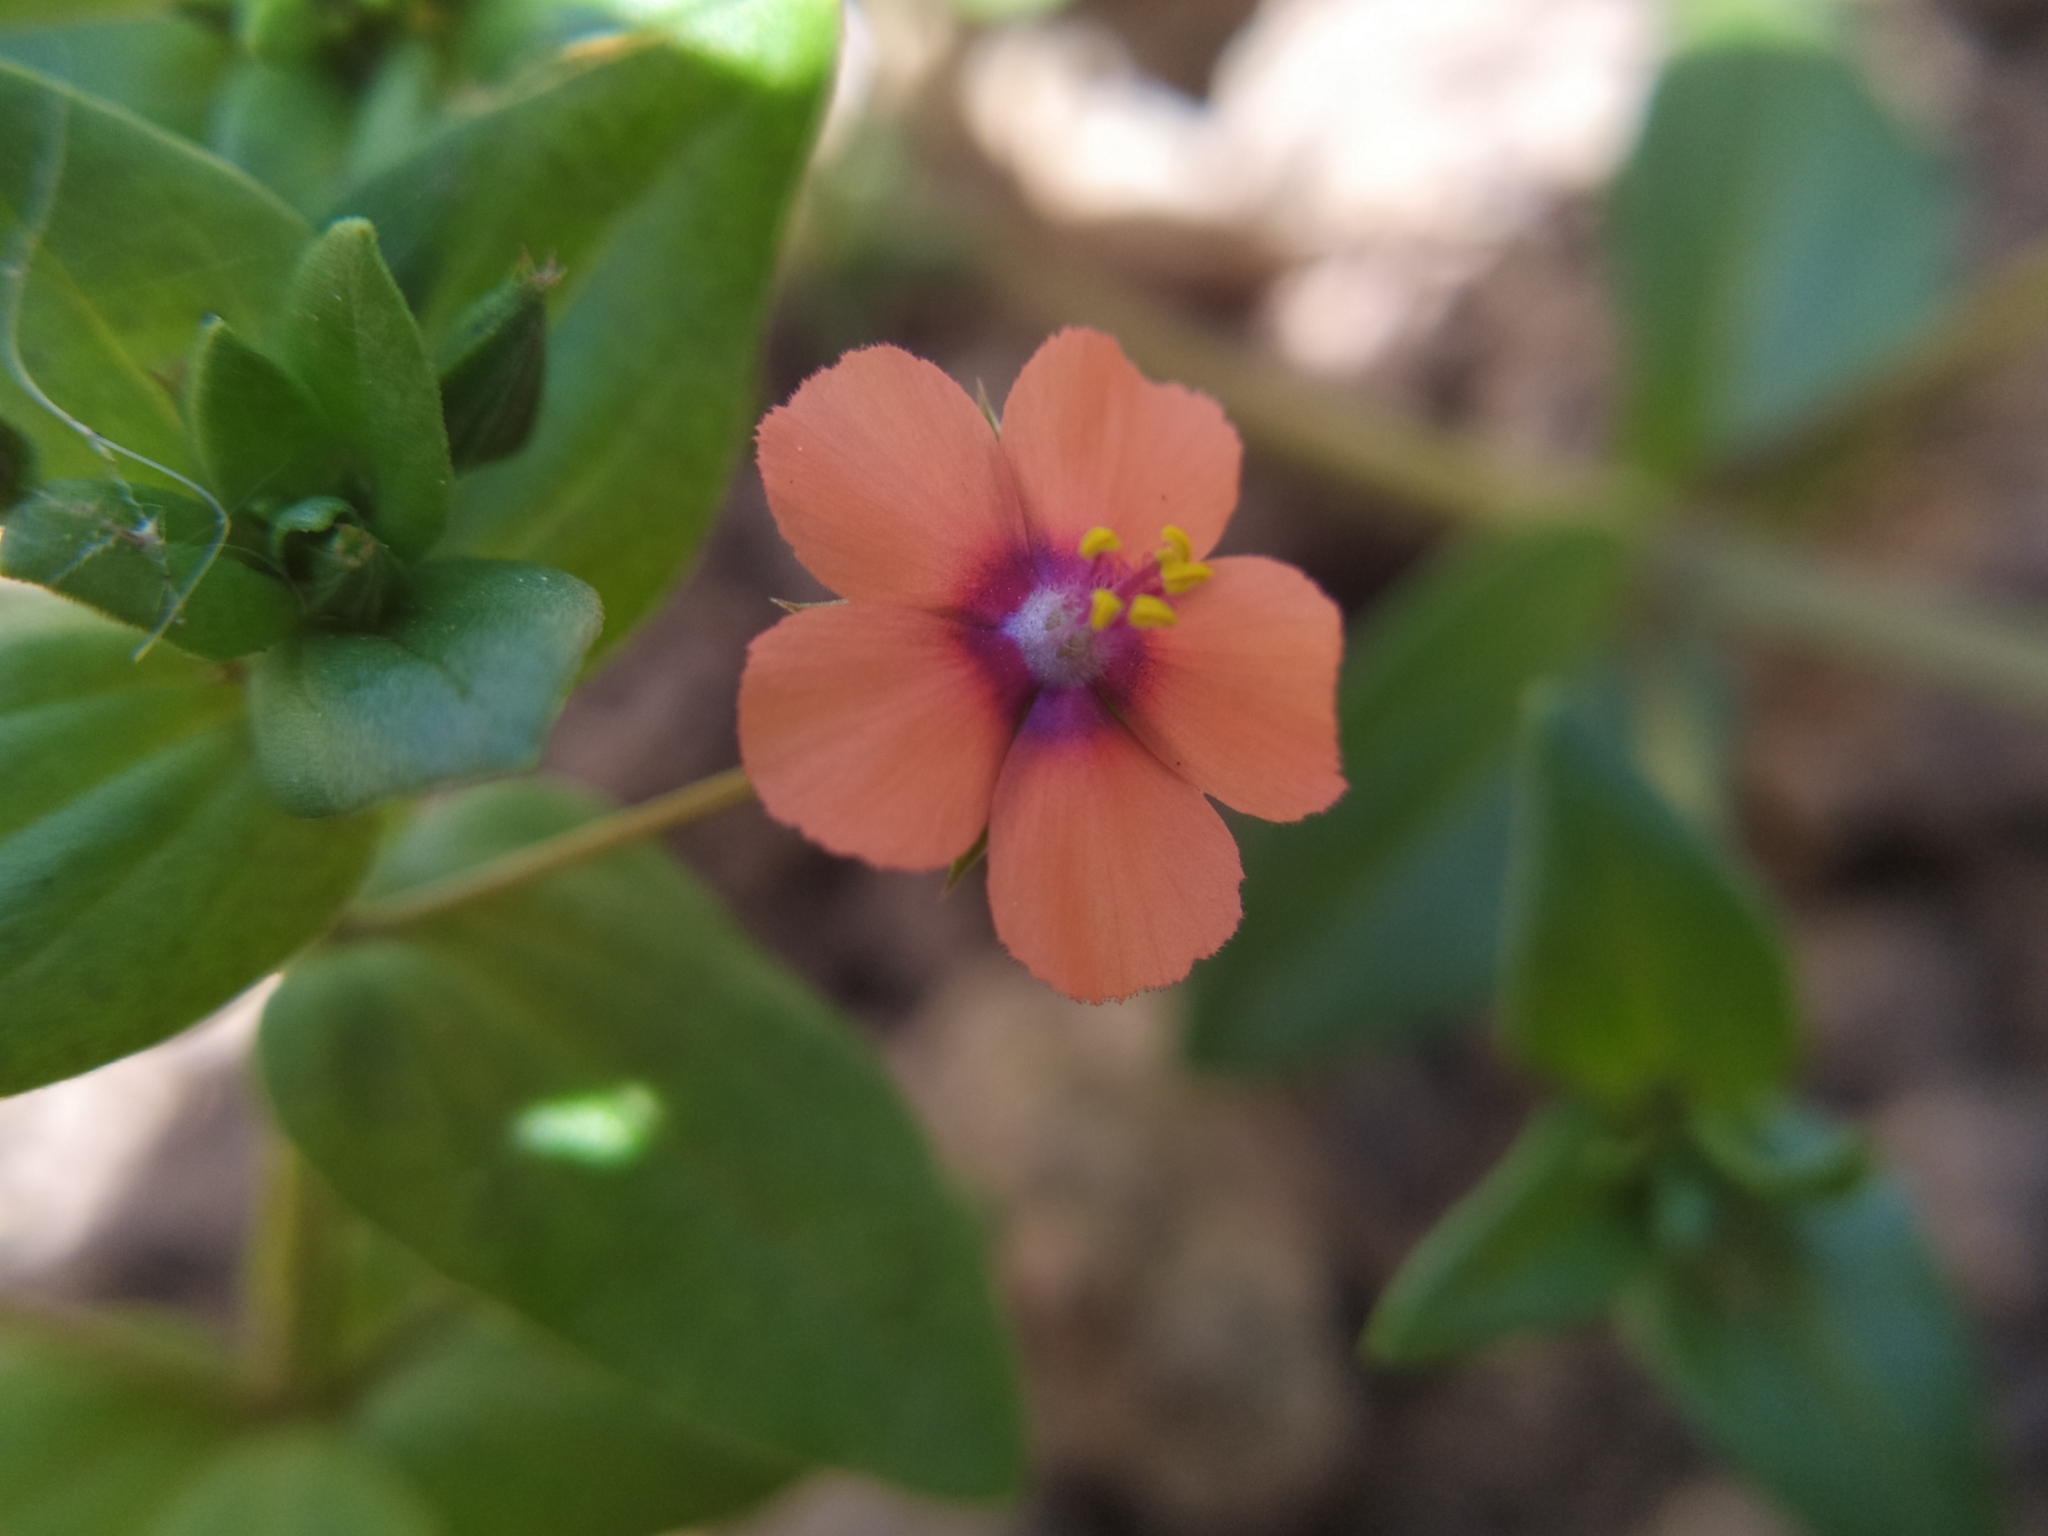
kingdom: Plantae
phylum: Tracheophyta
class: Magnoliopsida
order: Ericales
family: Primulaceae
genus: Lysimachia
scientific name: Lysimachia arvensis
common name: Scarlet pimpernel
